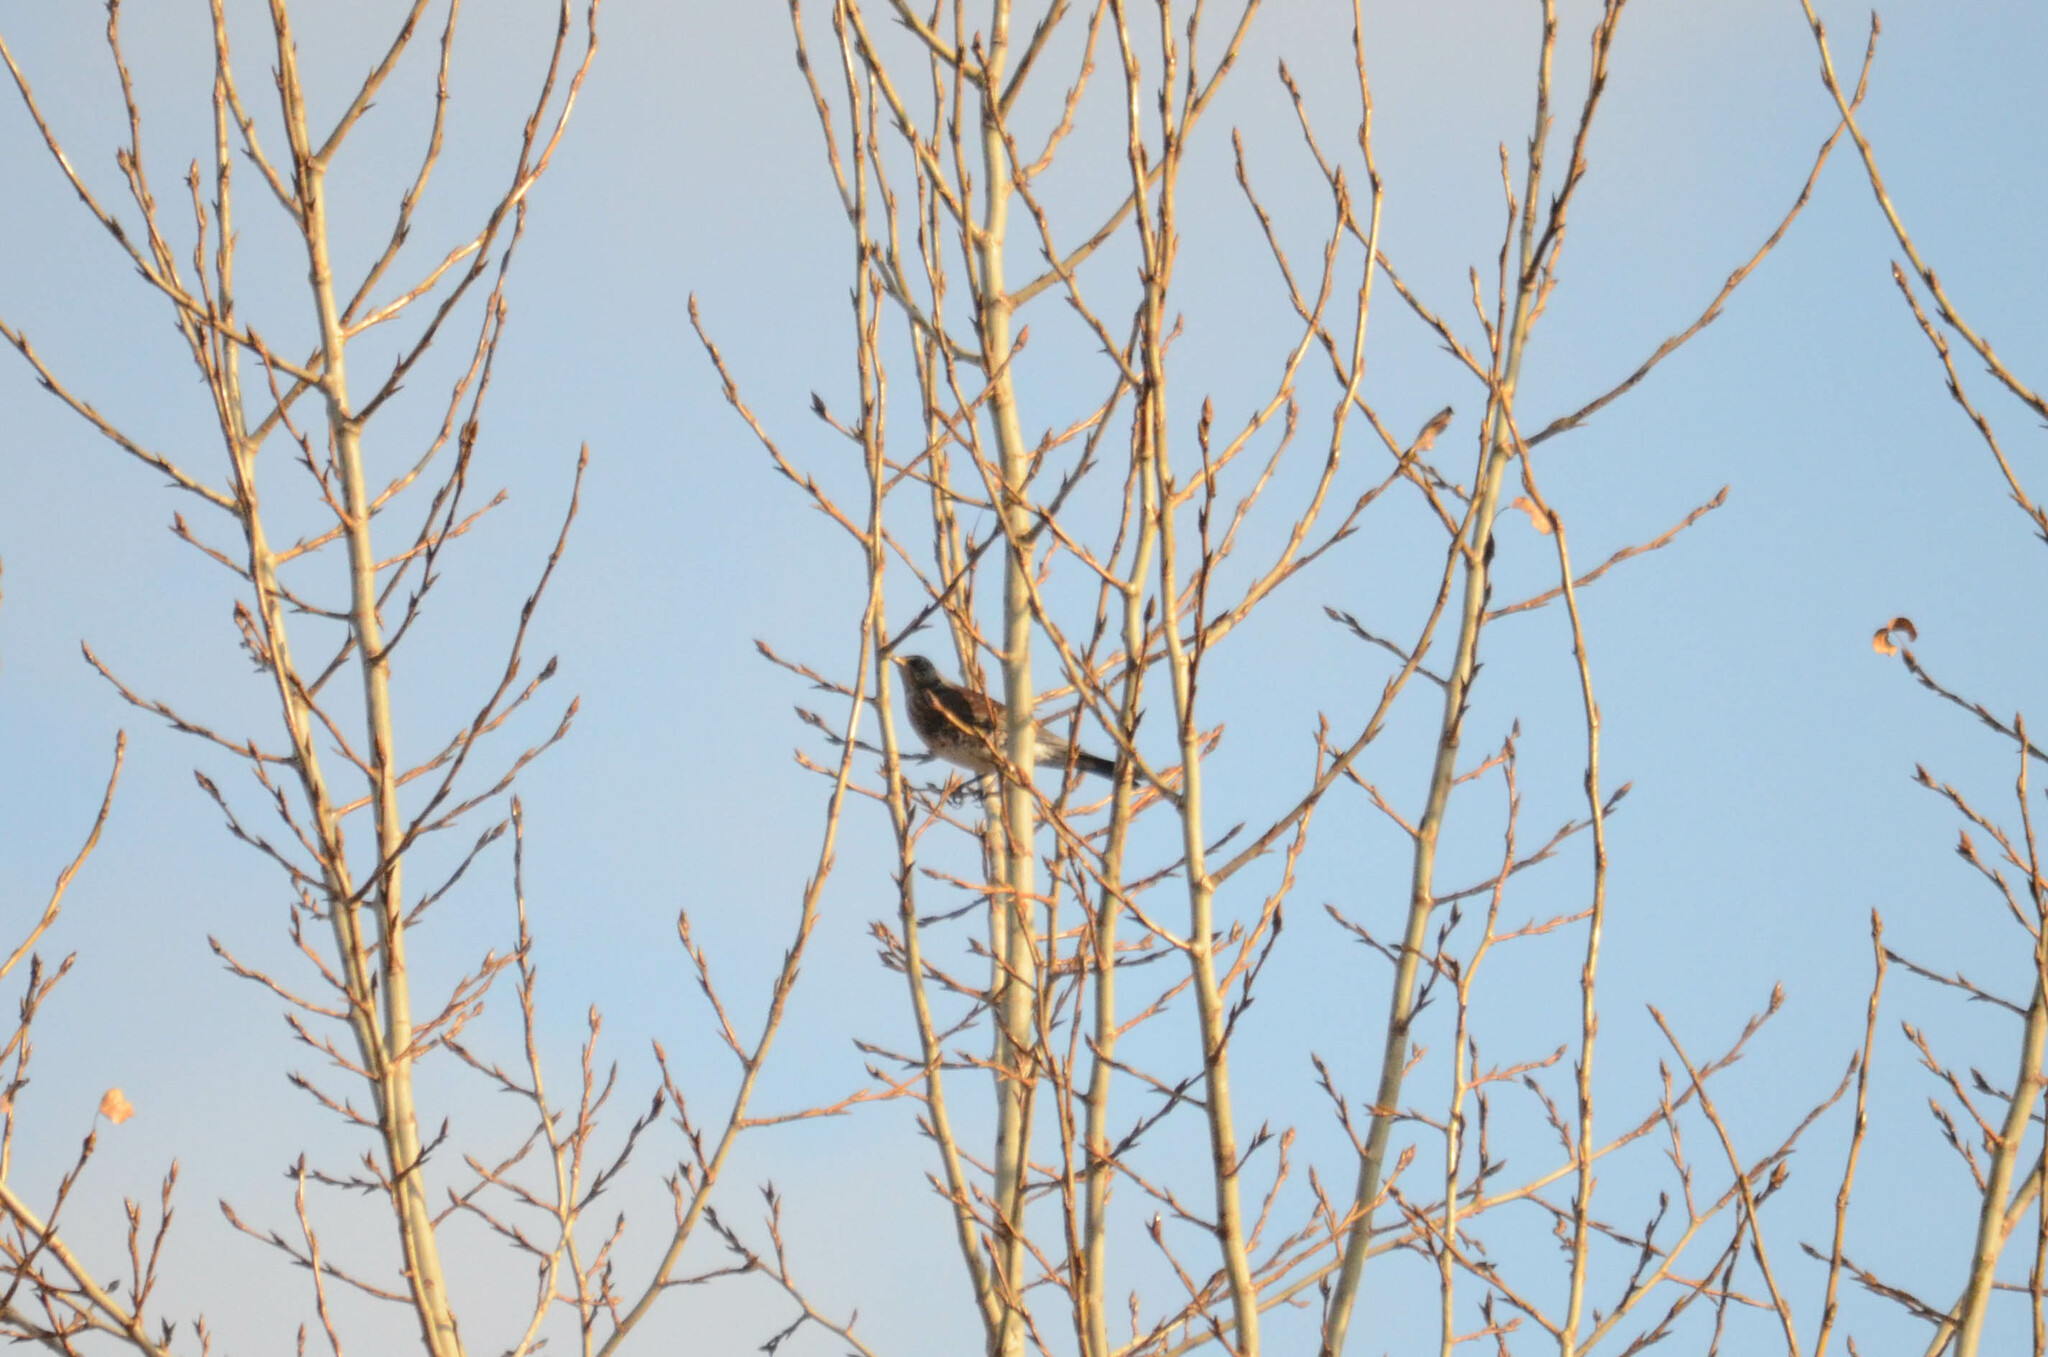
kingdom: Animalia
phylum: Chordata
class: Aves
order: Passeriformes
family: Turdidae
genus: Turdus
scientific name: Turdus pilaris
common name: Fieldfare
